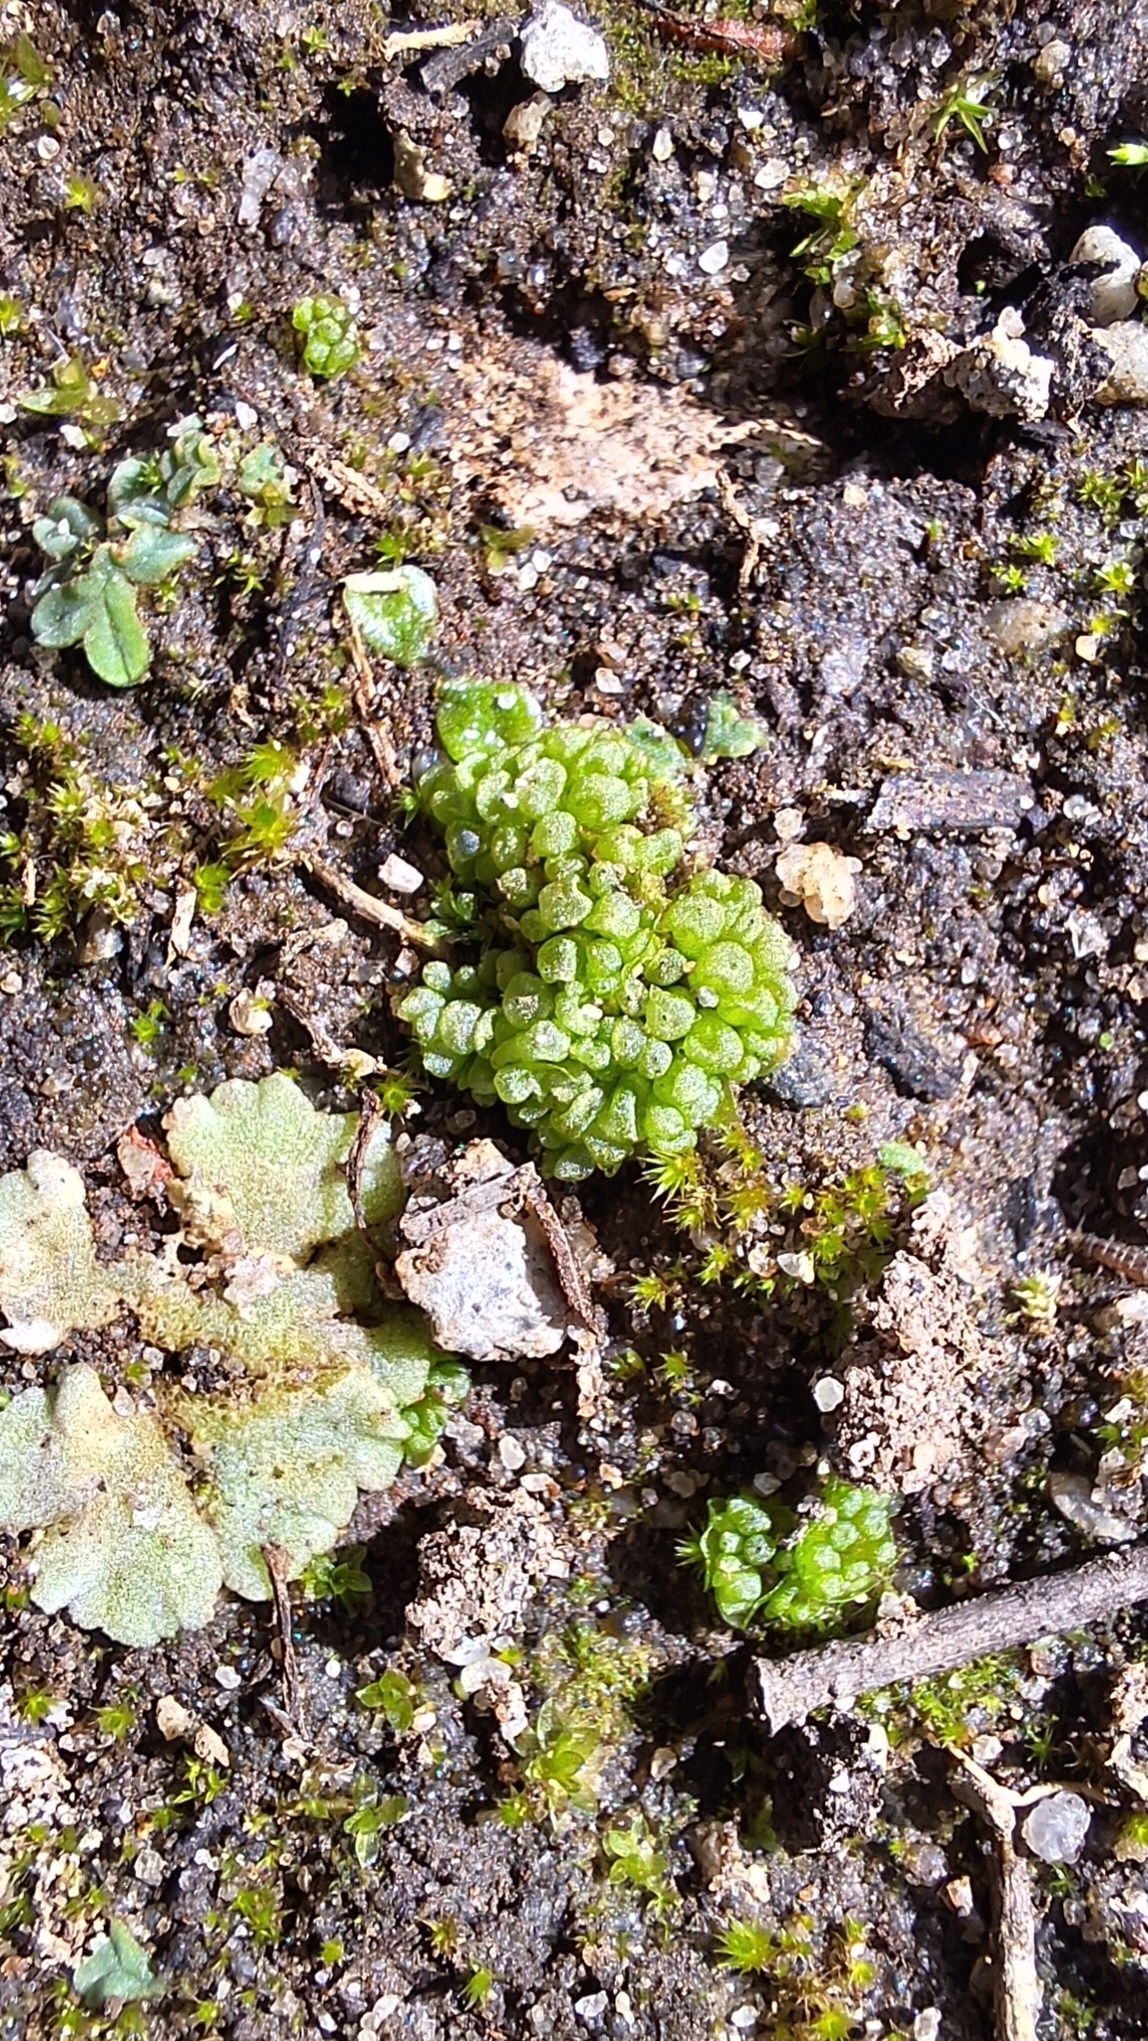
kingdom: Plantae
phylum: Marchantiophyta
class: Marchantiopsida
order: Sphaerocarpales
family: Sphaerocarpaceae
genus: Sphaerocarpos
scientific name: Sphaerocarpos texanus
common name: Texas balloonwort
